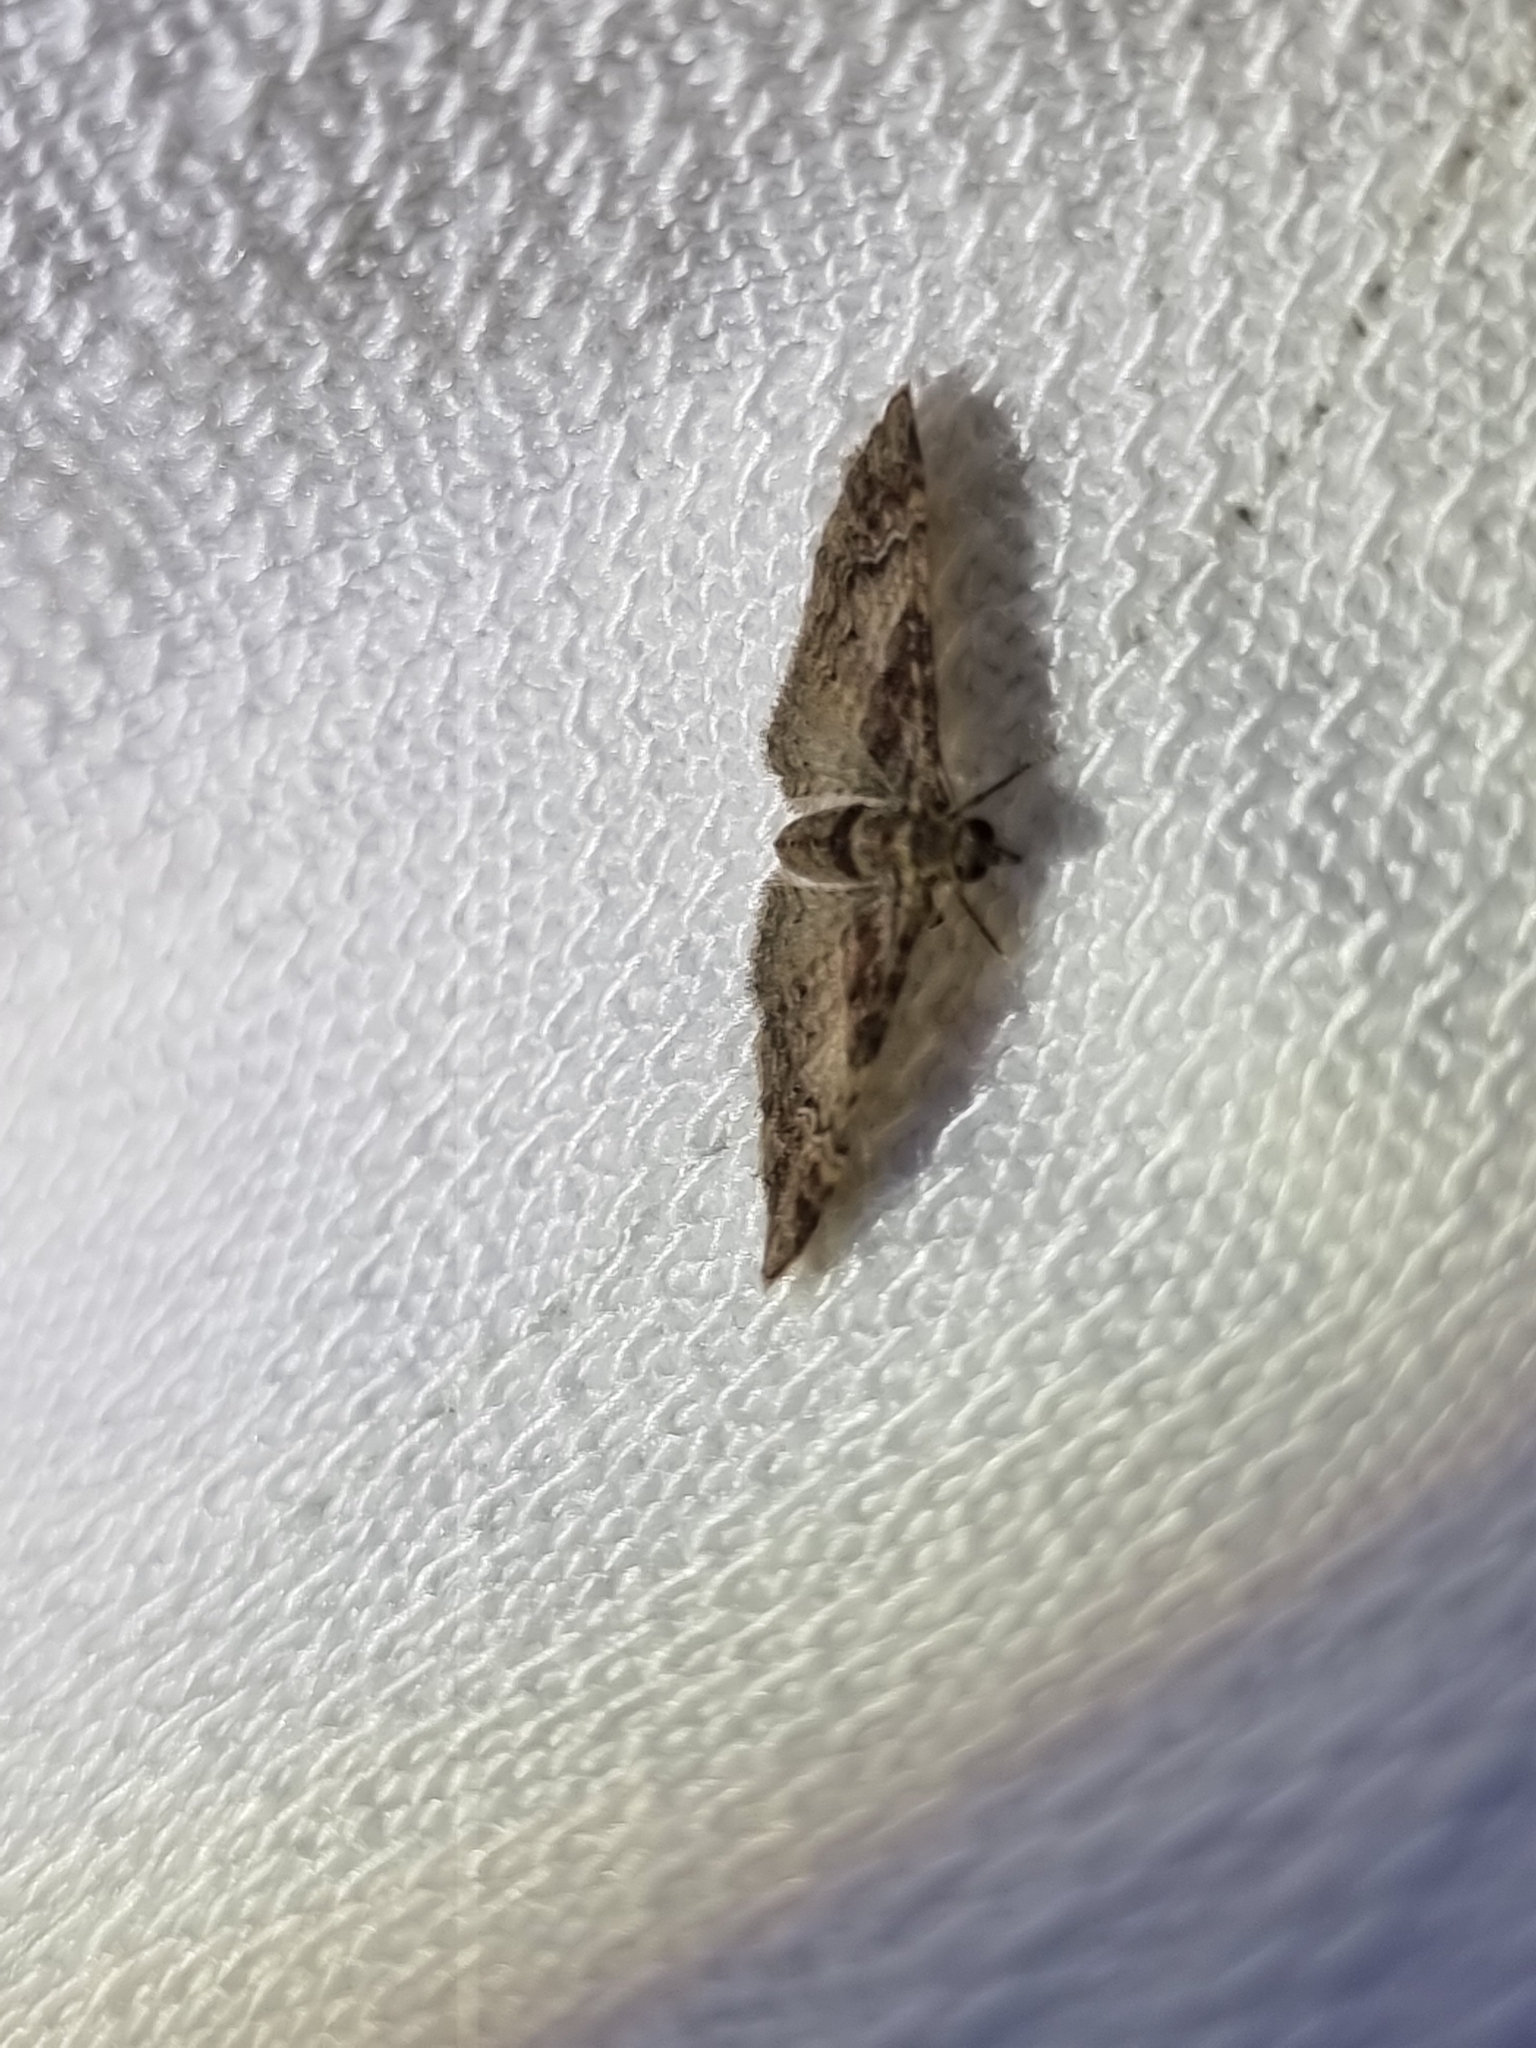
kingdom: Animalia
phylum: Arthropoda
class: Insecta
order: Lepidoptera
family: Geometridae
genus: Mnesiloba
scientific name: Mnesiloba eupitheciata
